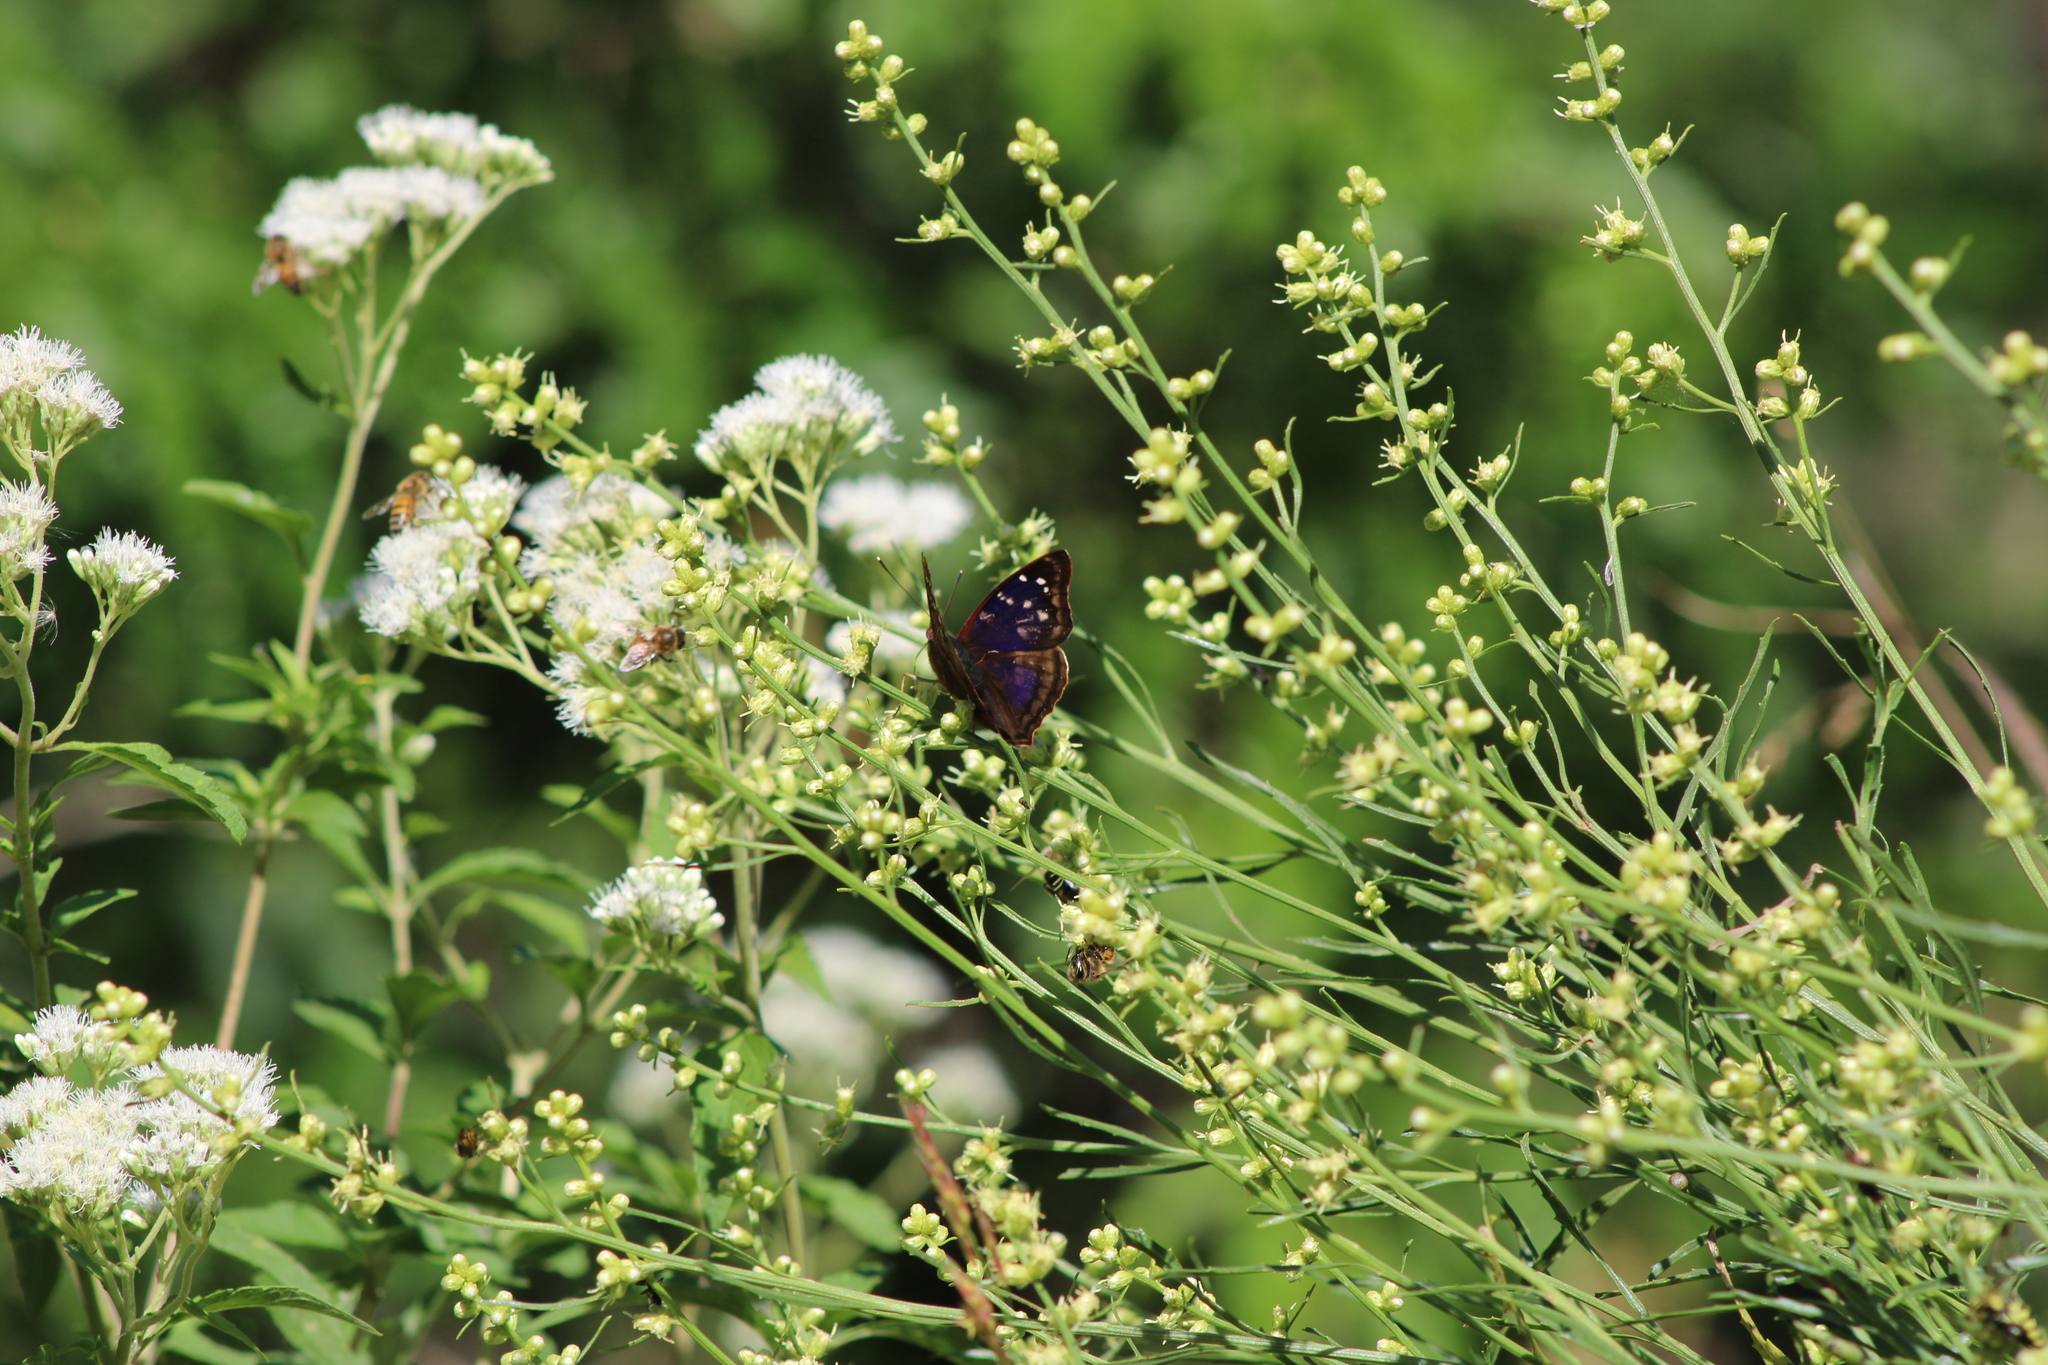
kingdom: Animalia
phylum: Arthropoda
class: Insecta
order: Lepidoptera
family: Nymphalidae
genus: Doxocopa
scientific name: Doxocopa kallina
